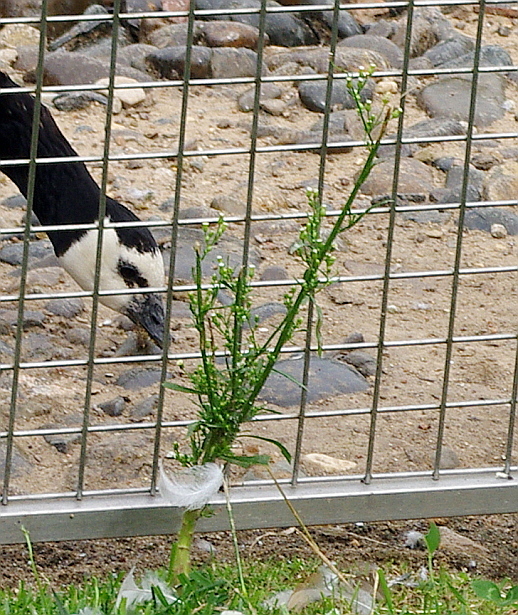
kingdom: Plantae
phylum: Tracheophyta
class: Magnoliopsida
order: Asterales
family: Asteraceae
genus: Erigeron
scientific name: Erigeron canadensis
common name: Canadian fleabane
